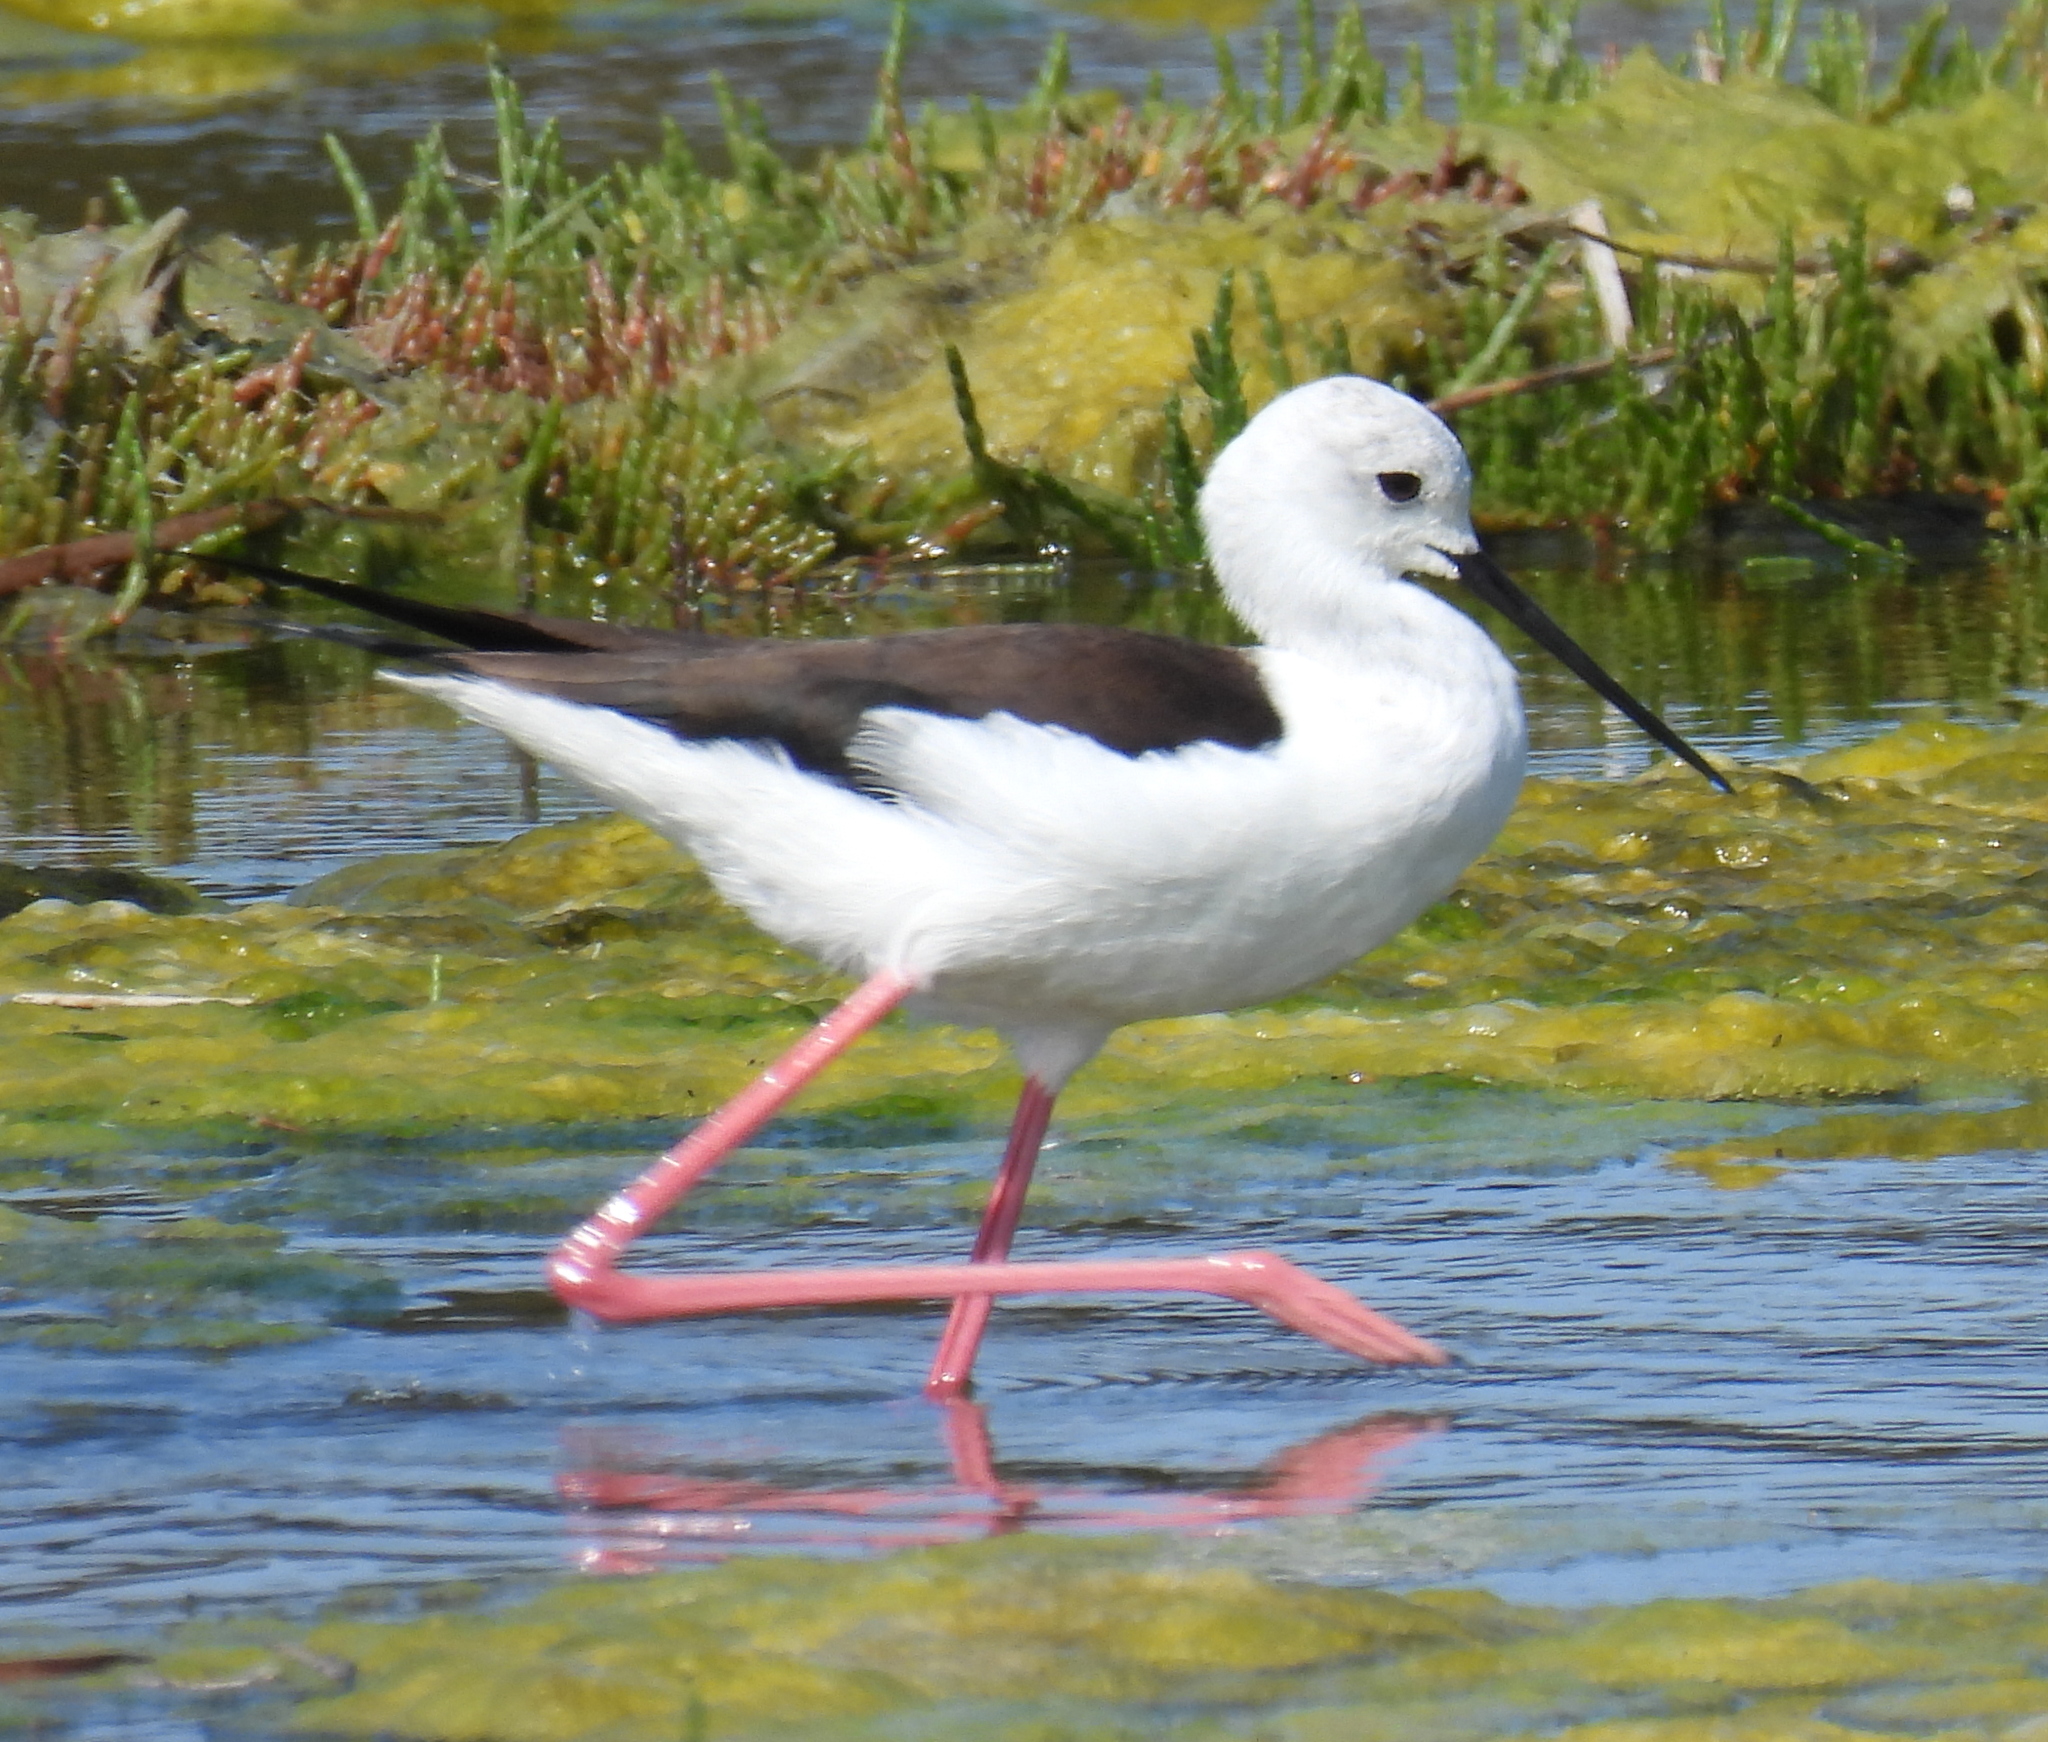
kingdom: Animalia
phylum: Chordata
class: Aves
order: Charadriiformes
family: Recurvirostridae
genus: Himantopus
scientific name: Himantopus himantopus
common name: Black-winged stilt
